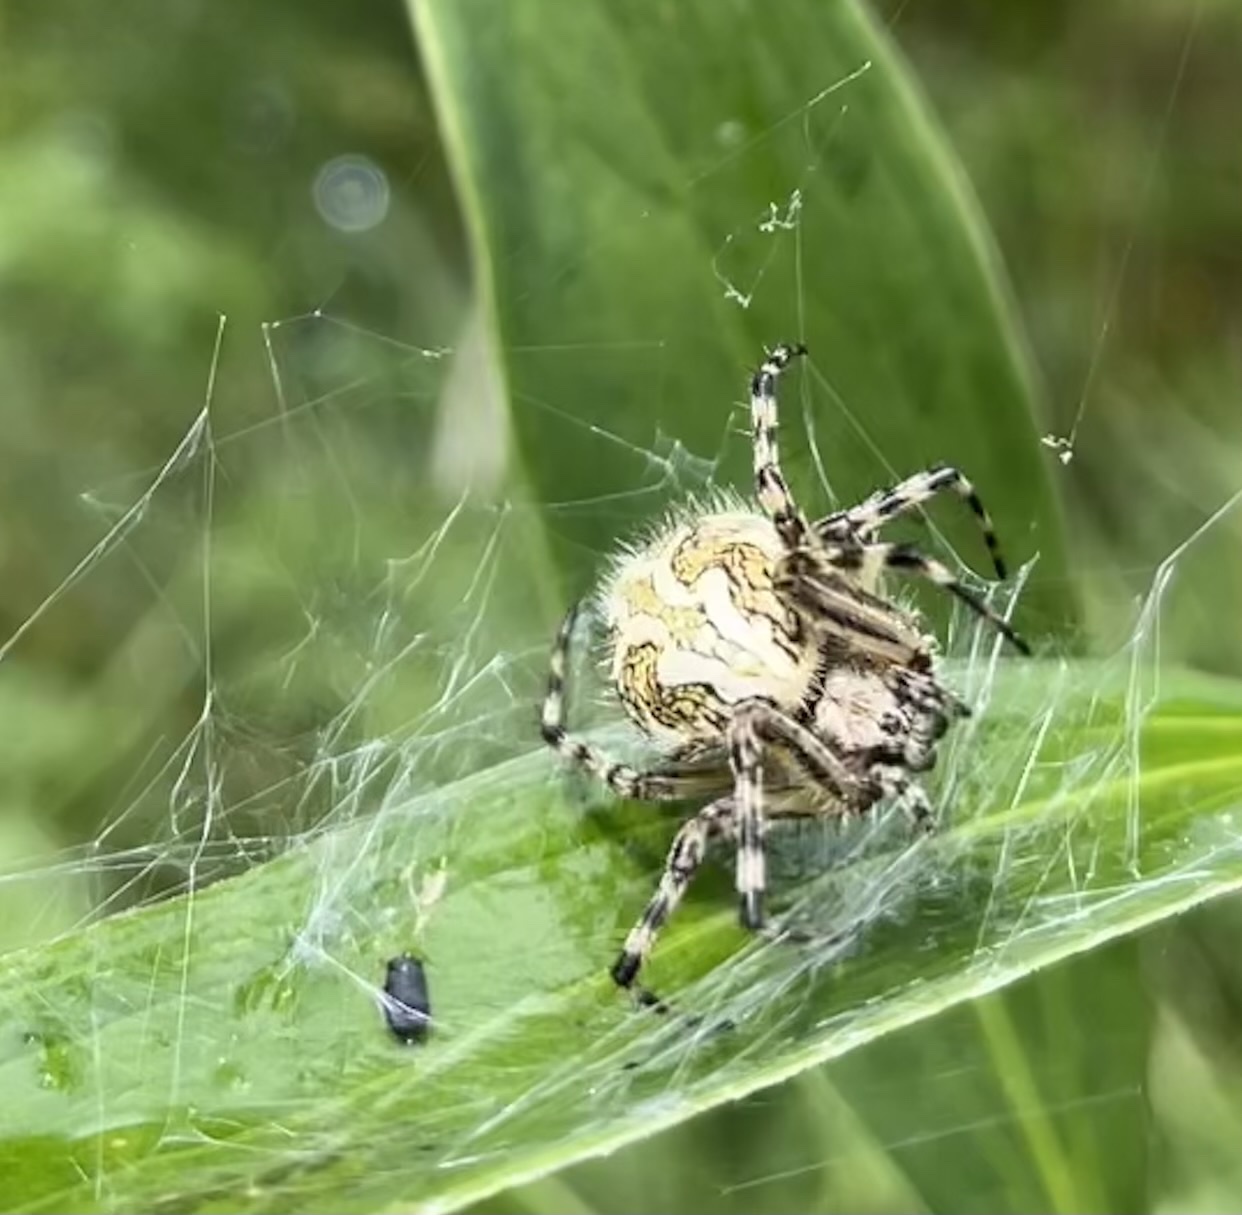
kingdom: Animalia
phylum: Arthropoda
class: Arachnida
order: Araneae
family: Araneidae
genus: Aculepeira
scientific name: Aculepeira ceropegia
